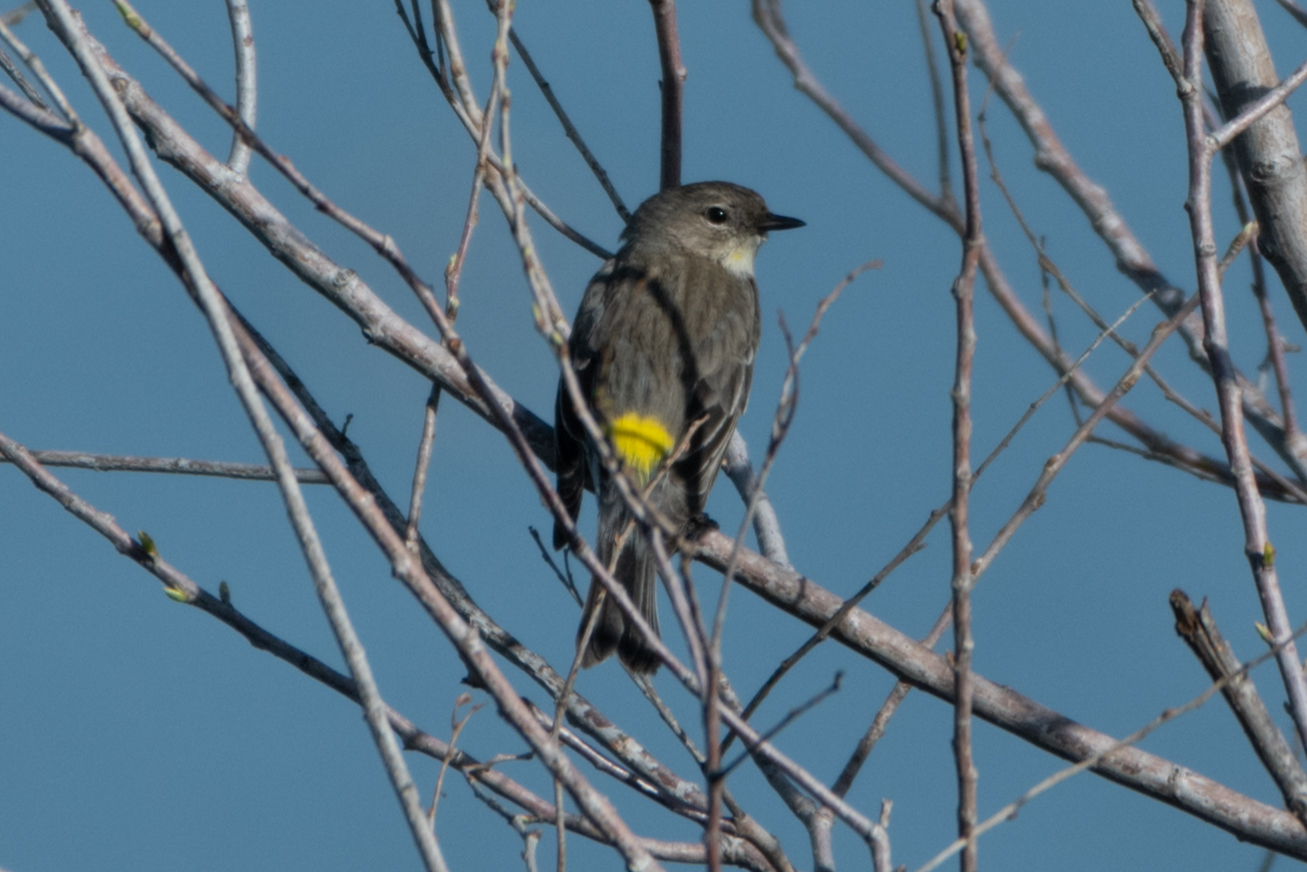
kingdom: Animalia
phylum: Chordata
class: Aves
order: Passeriformes
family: Parulidae
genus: Setophaga
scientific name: Setophaga coronata
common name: Myrtle warbler
